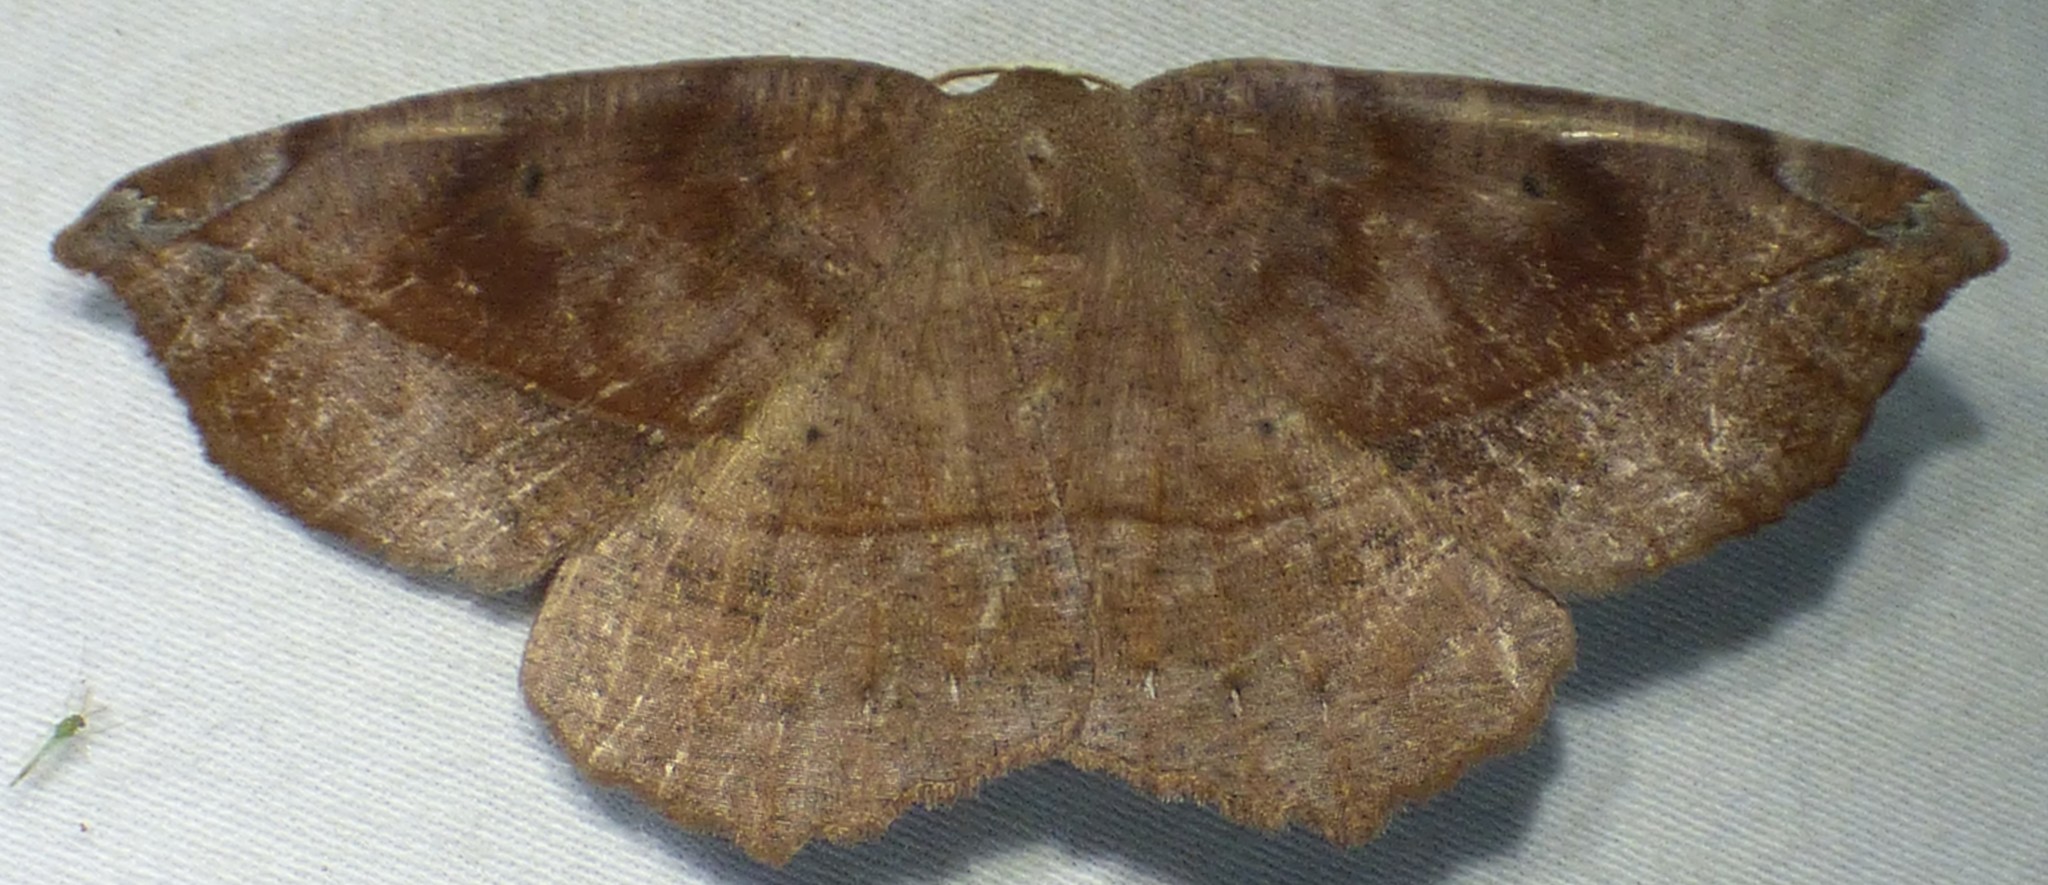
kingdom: Animalia
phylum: Arthropoda
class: Insecta
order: Lepidoptera
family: Geometridae
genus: Eutrapela
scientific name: Eutrapela clemataria
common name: Curved-toothed geometer
